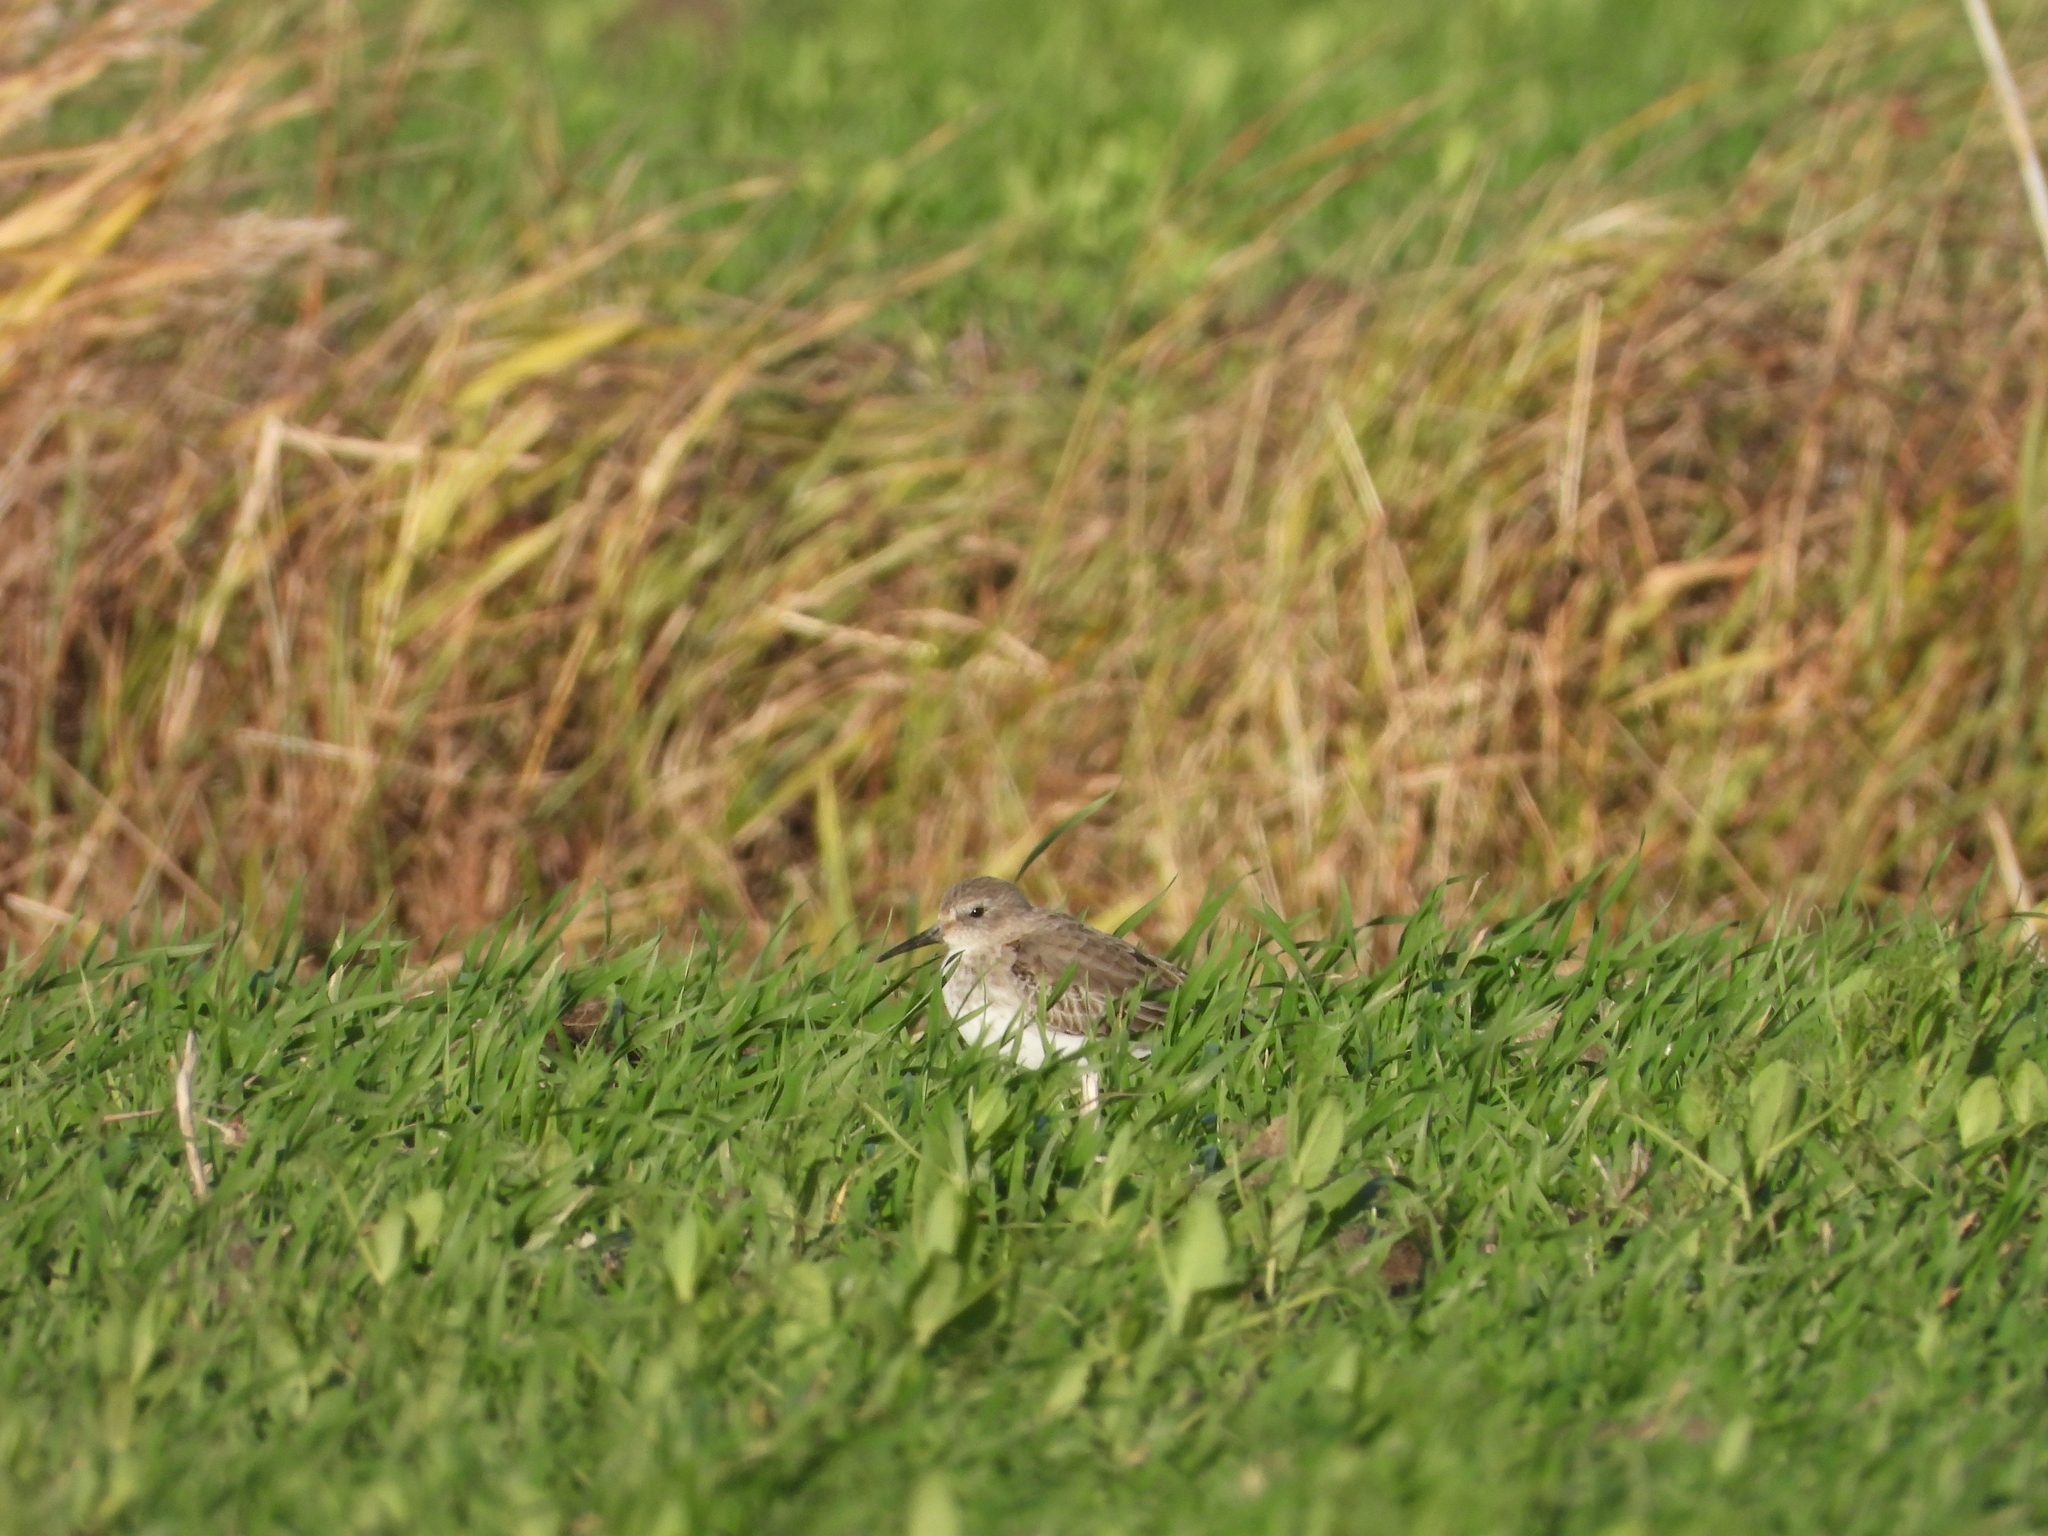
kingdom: Animalia
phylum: Chordata
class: Aves
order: Charadriiformes
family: Scolopacidae
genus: Calidris
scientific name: Calidris alpina
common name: Dunlin
